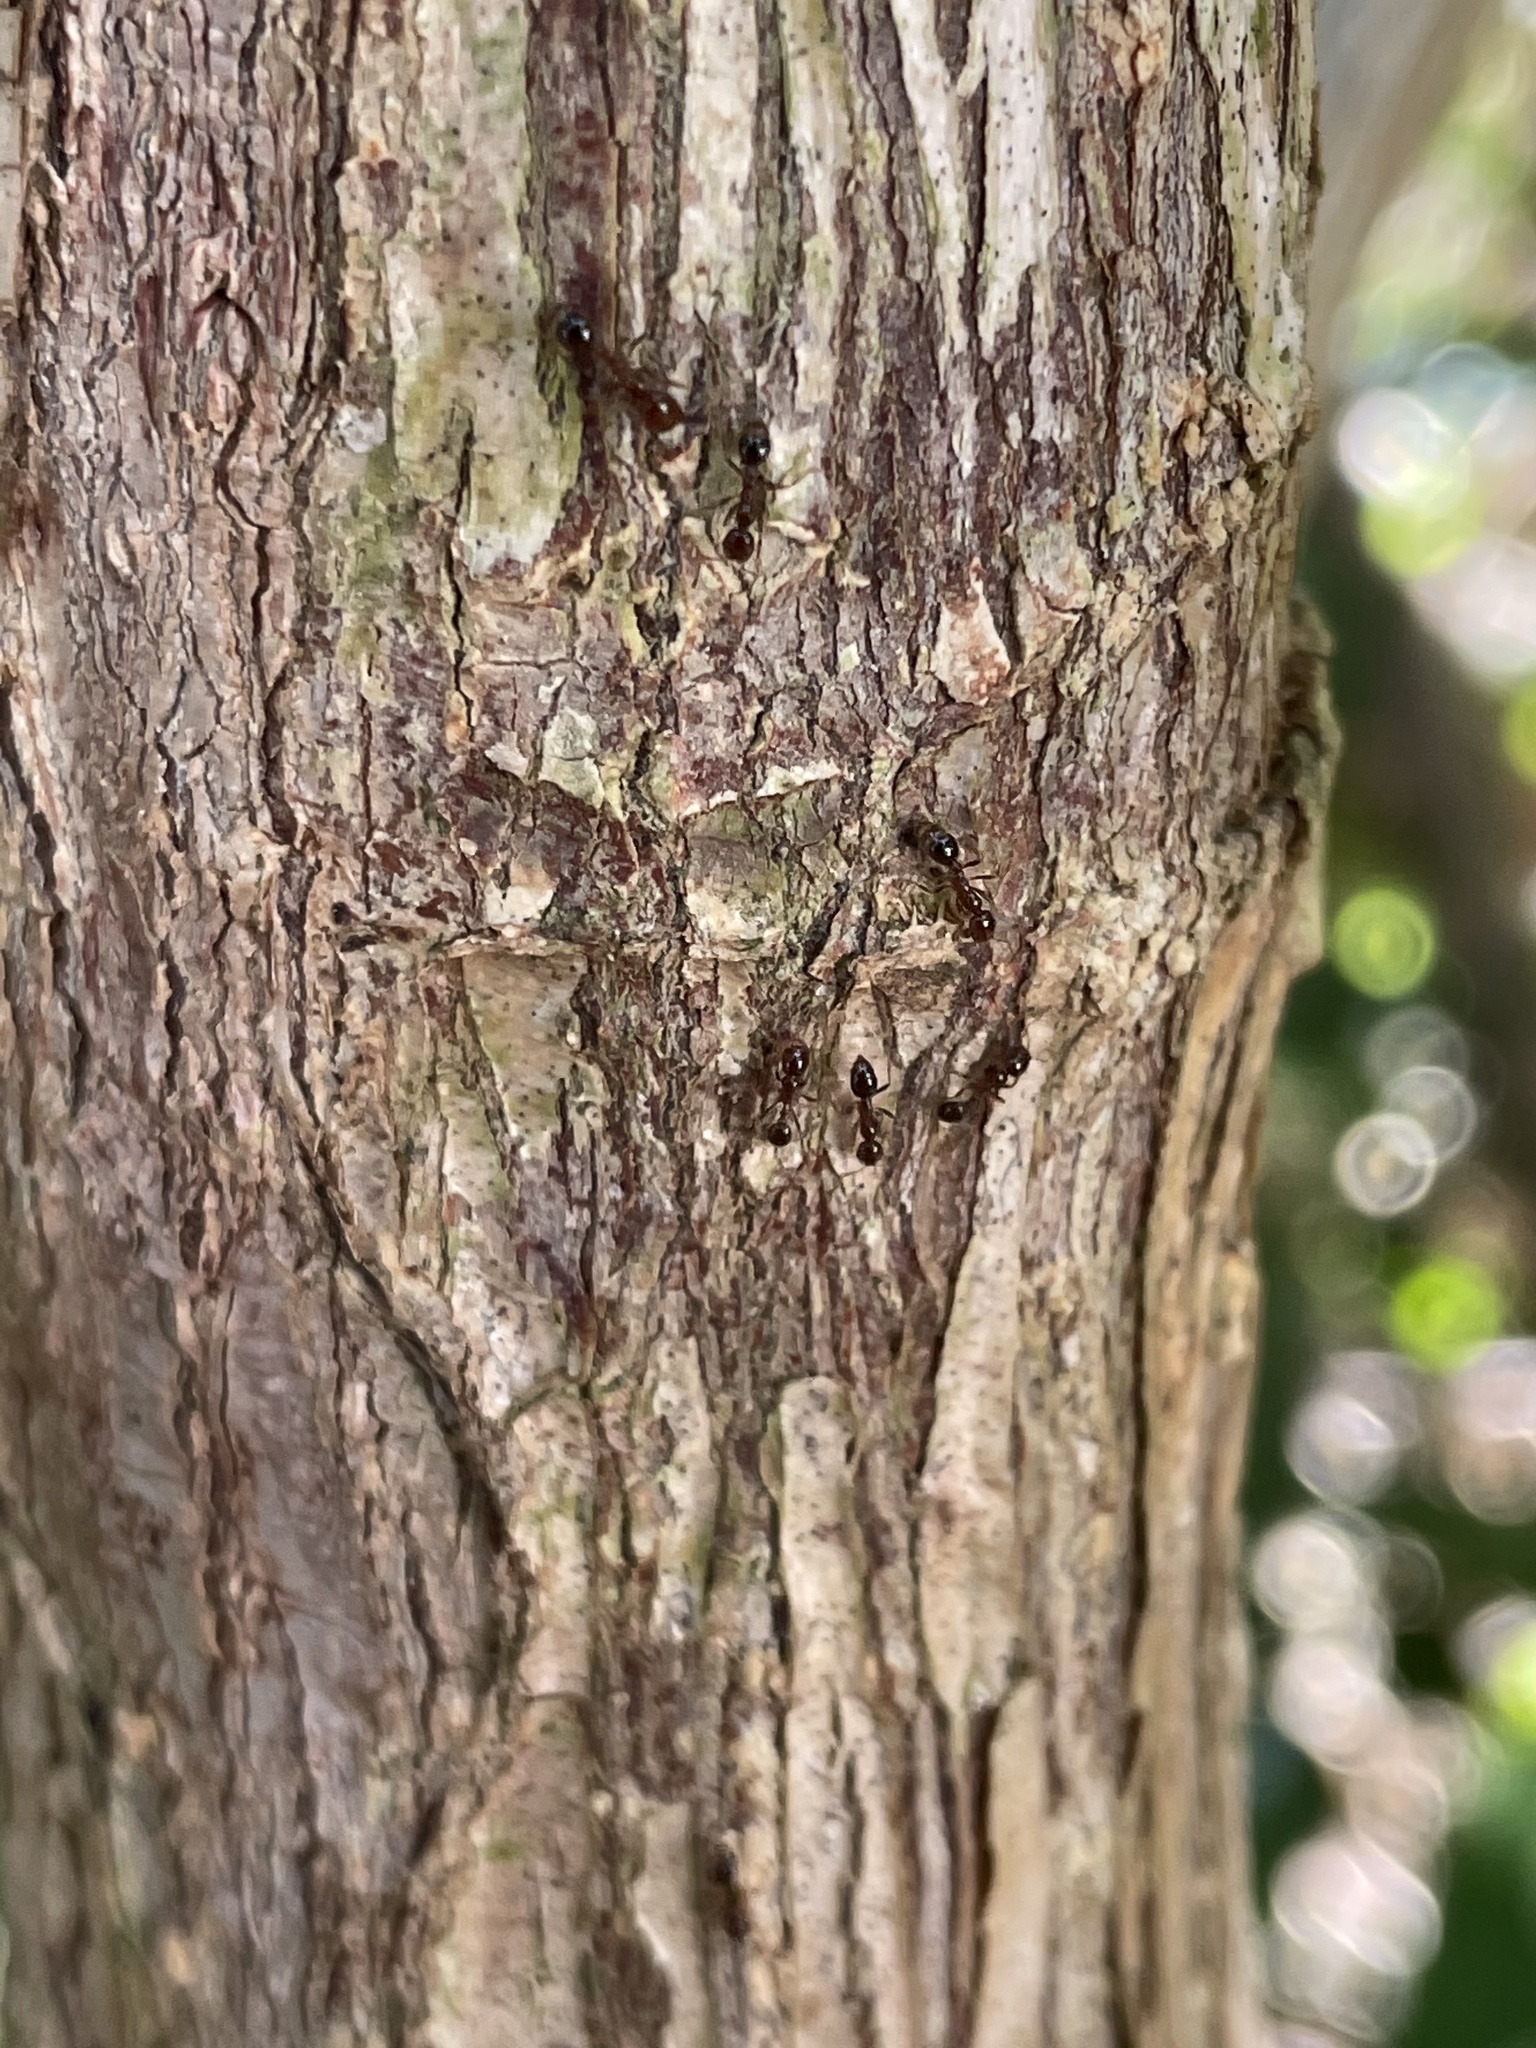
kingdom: Animalia
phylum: Arthropoda
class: Insecta
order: Hymenoptera
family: Formicidae
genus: Solenopsis
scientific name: Solenopsis invicta
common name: Red imported fire ant
